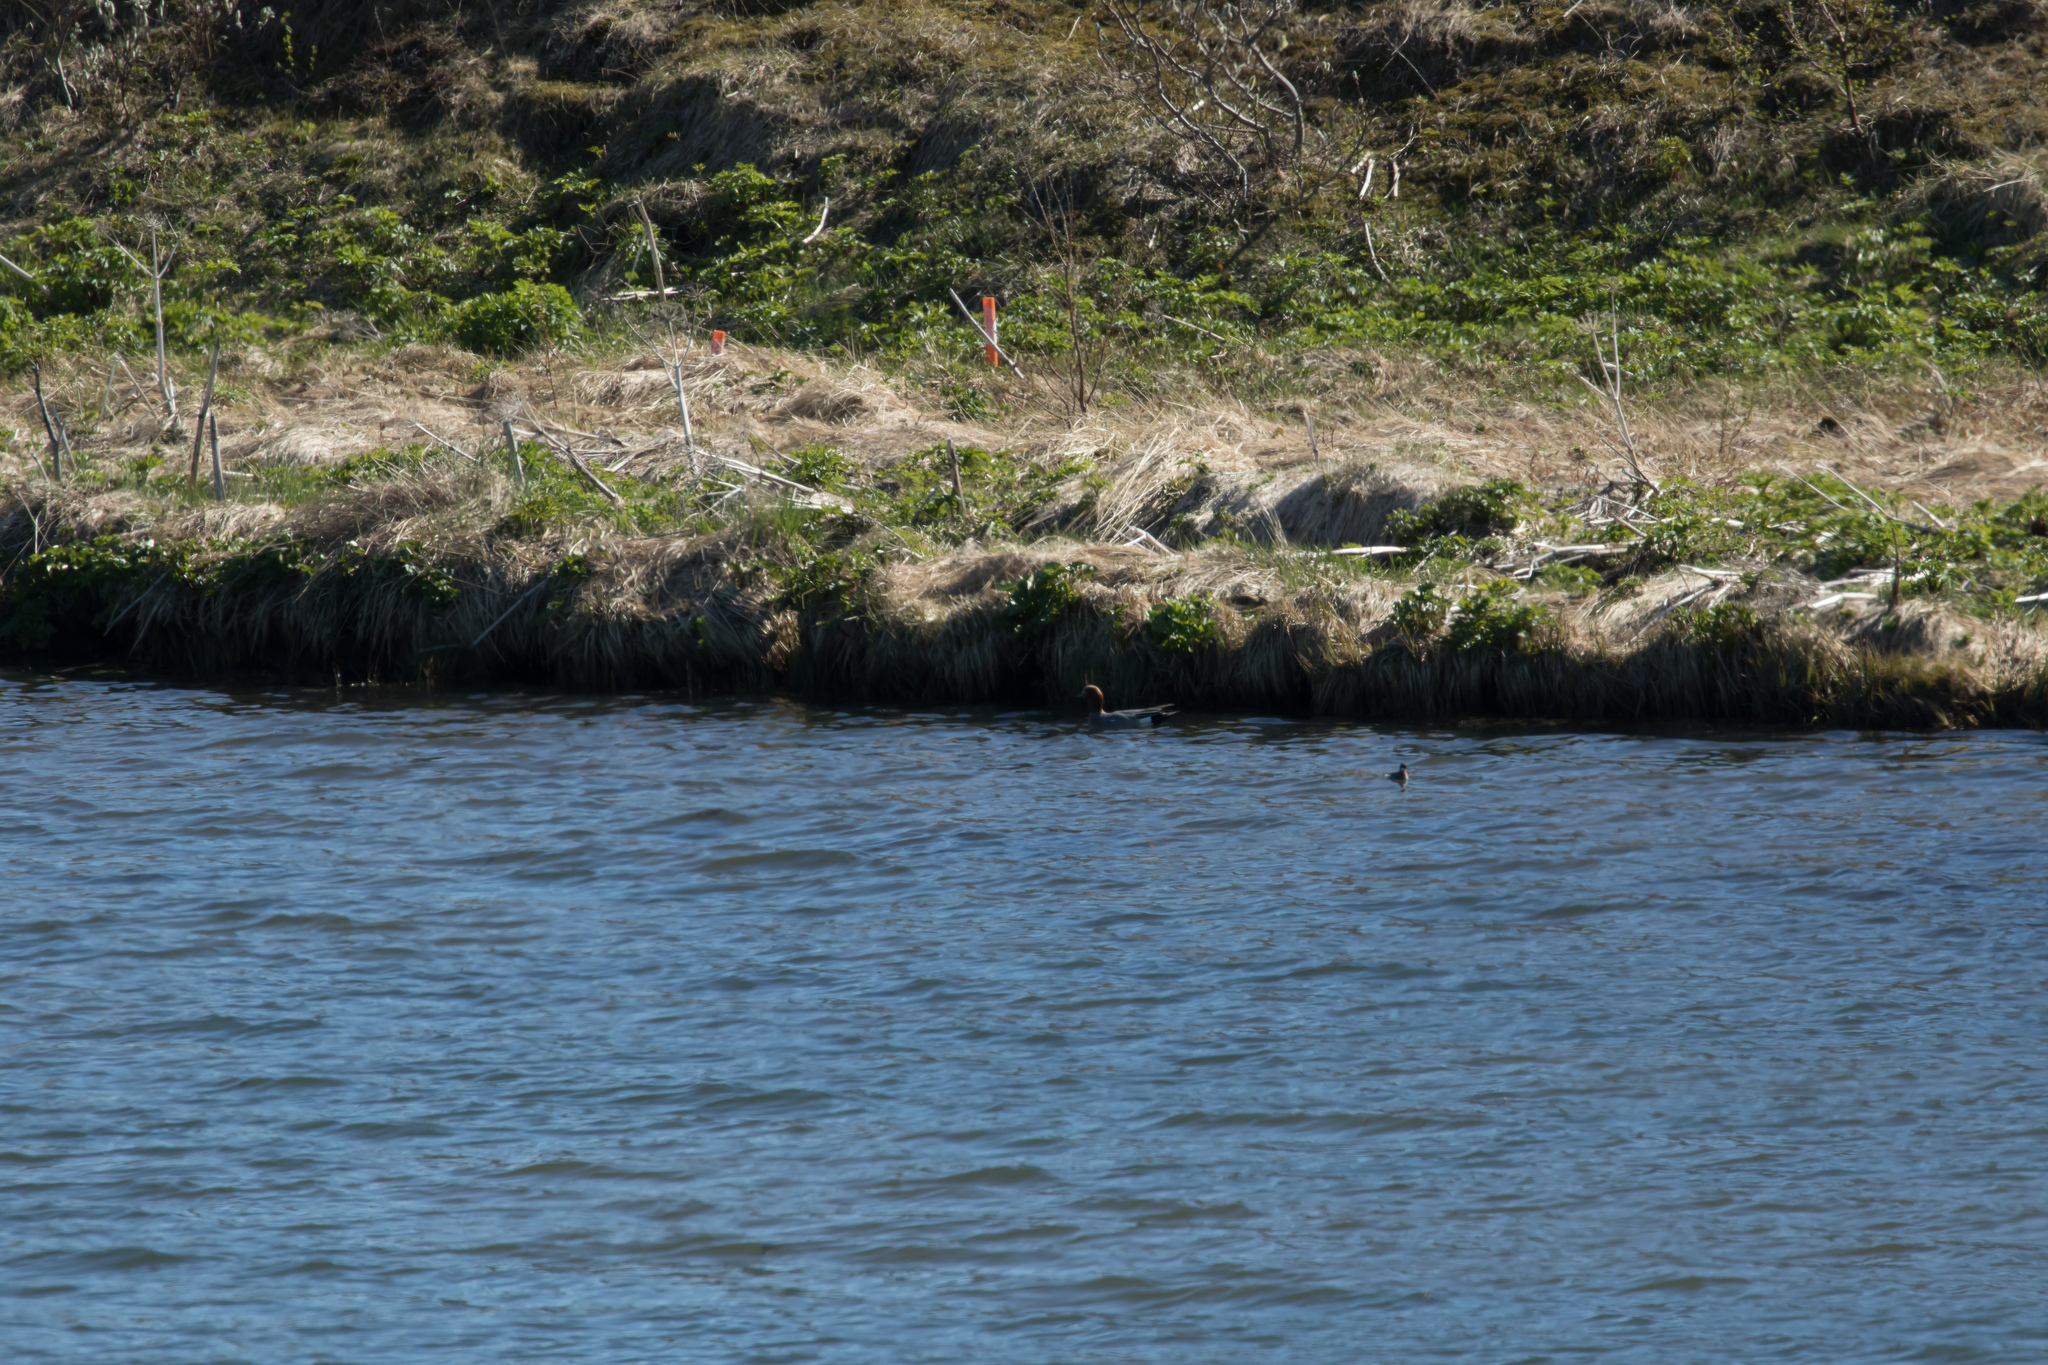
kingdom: Animalia
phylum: Chordata
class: Aves
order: Anseriformes
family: Anatidae
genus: Mareca
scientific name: Mareca penelope
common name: Eurasian wigeon
